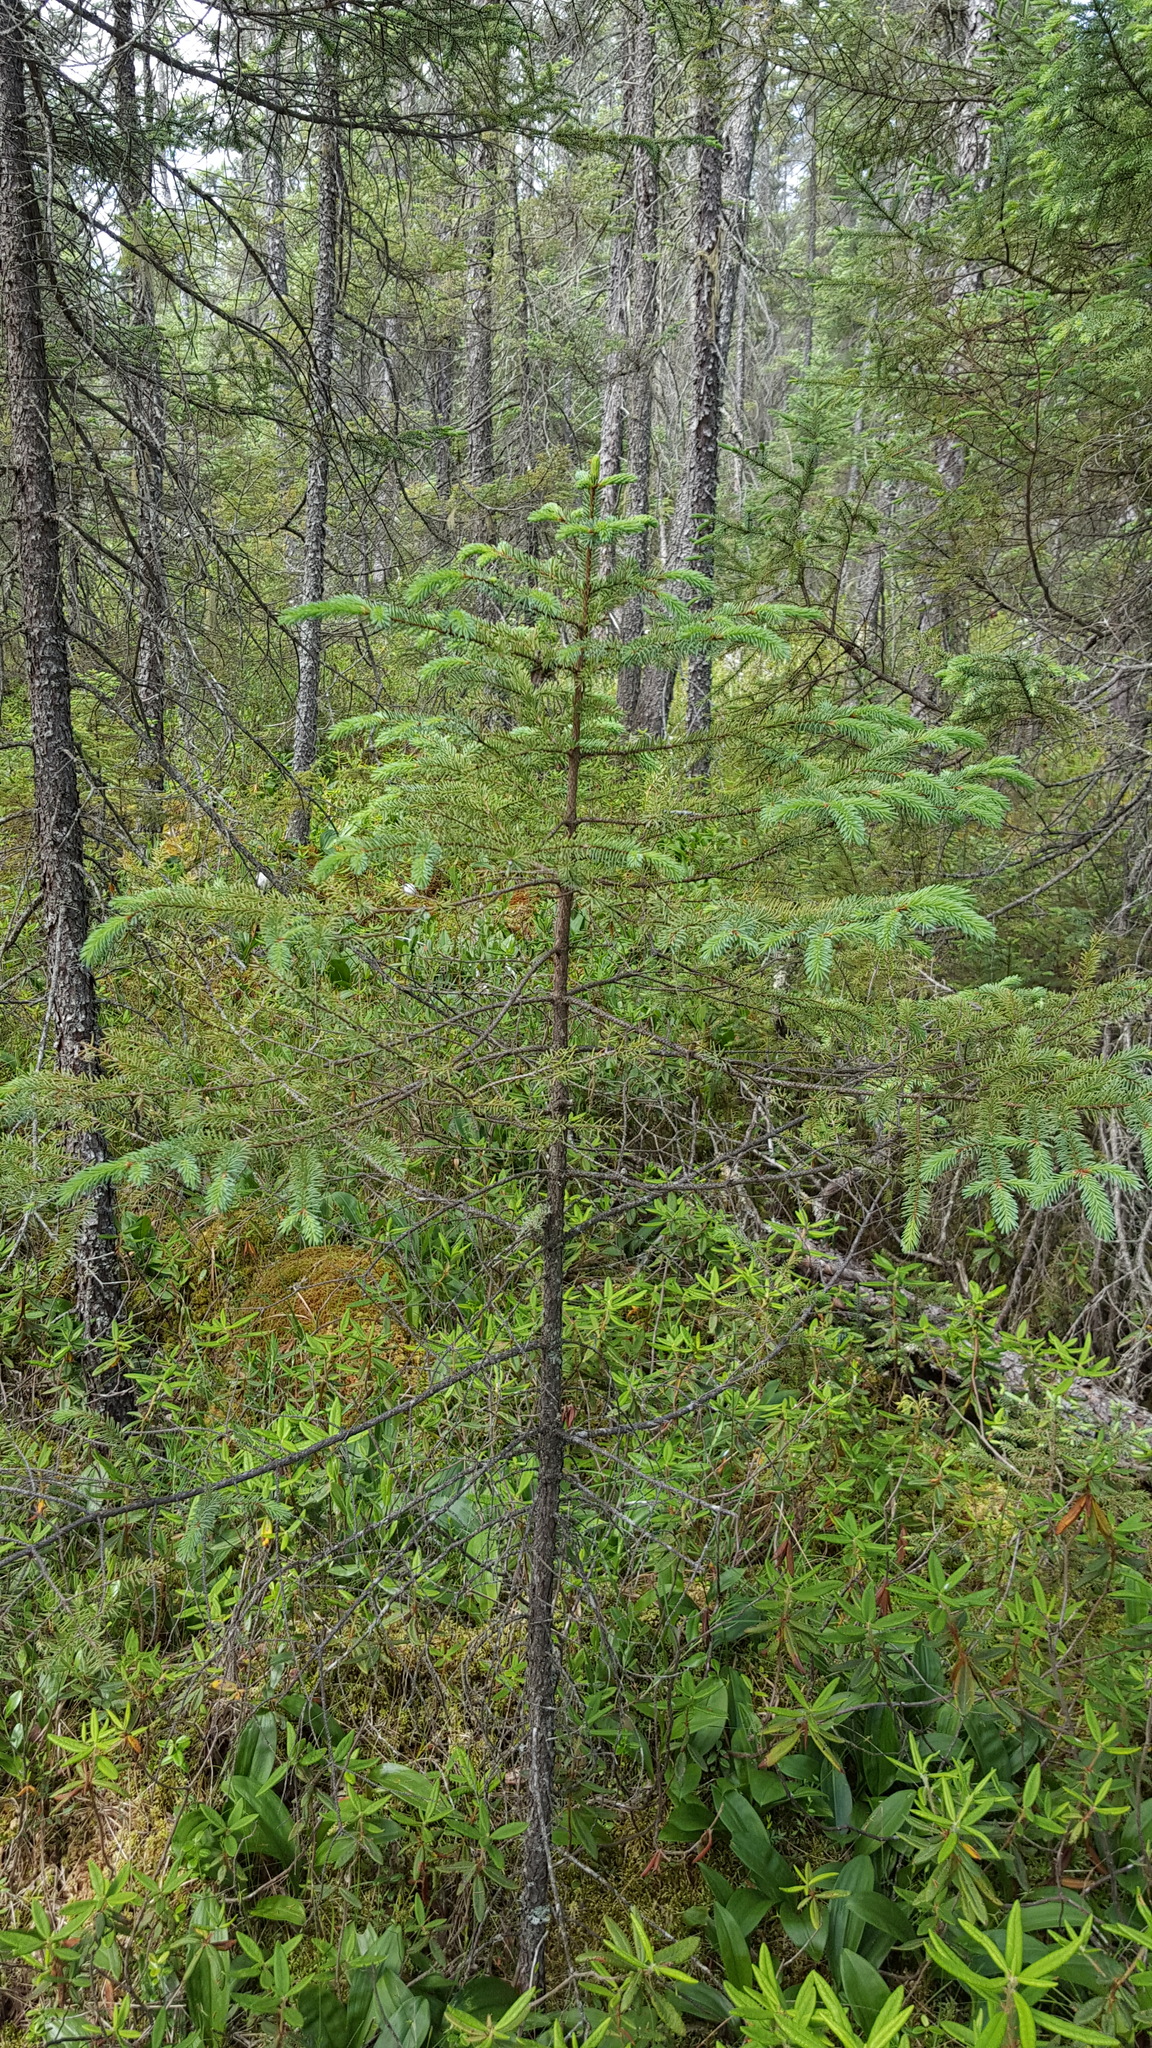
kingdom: Plantae
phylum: Tracheophyta
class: Pinopsida
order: Pinales
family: Pinaceae
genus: Picea
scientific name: Picea mariana
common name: Black spruce
